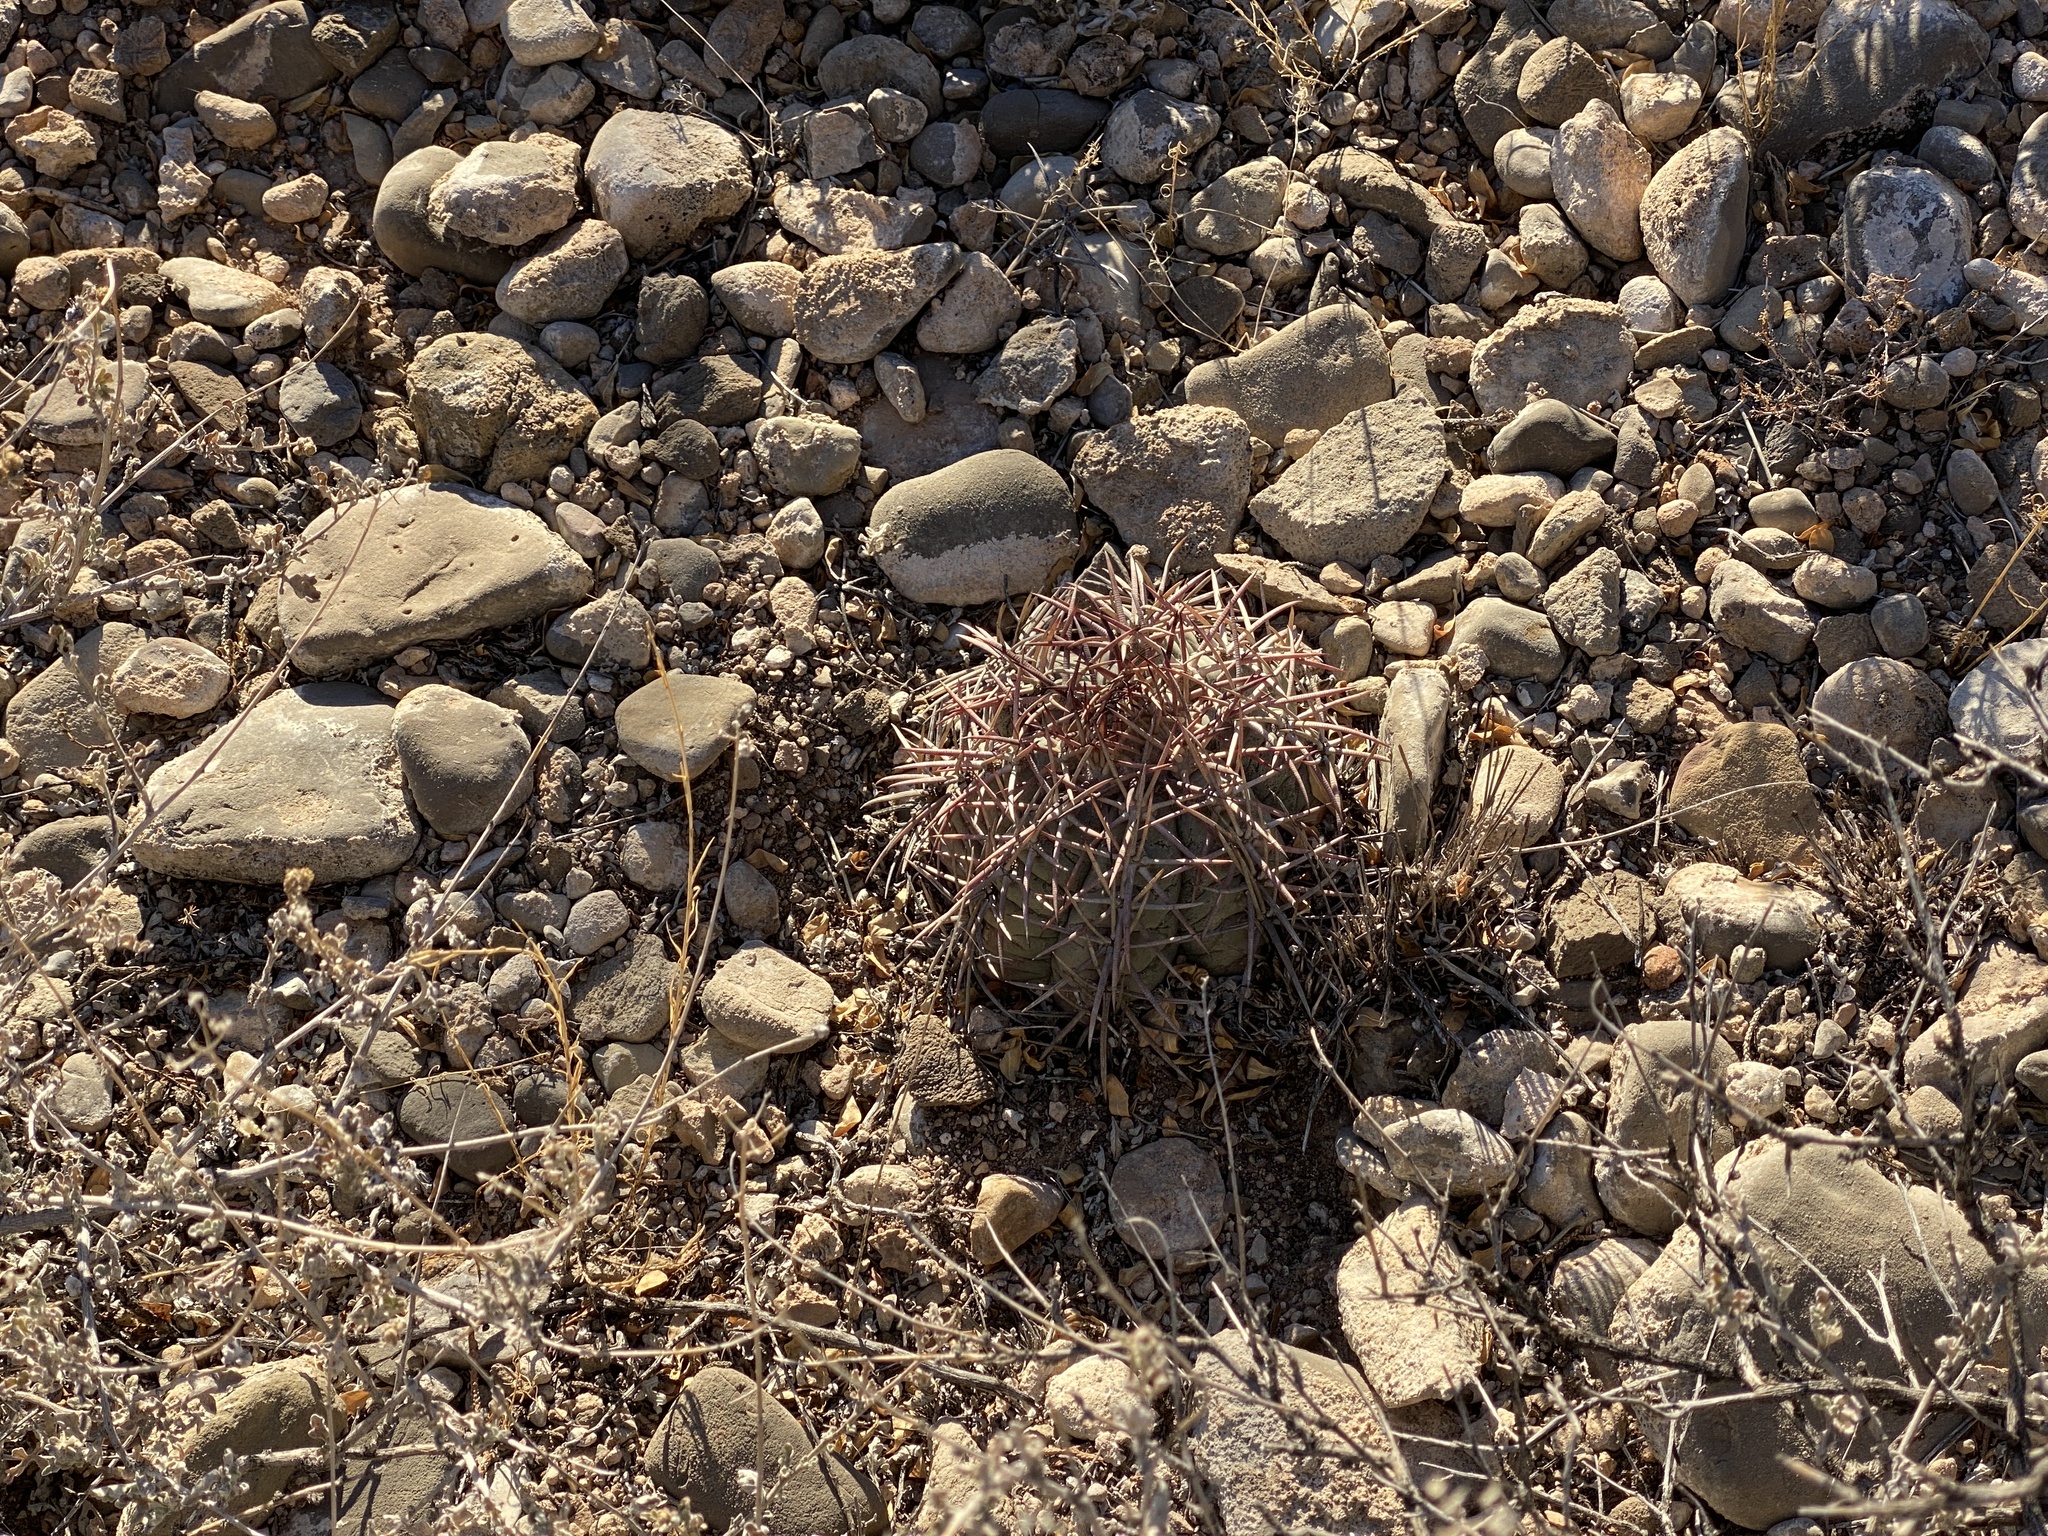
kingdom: Plantae
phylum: Tracheophyta
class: Magnoliopsida
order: Caryophyllales
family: Cactaceae
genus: Echinocactus
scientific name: Echinocactus horizonthalonius
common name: Devilshead
